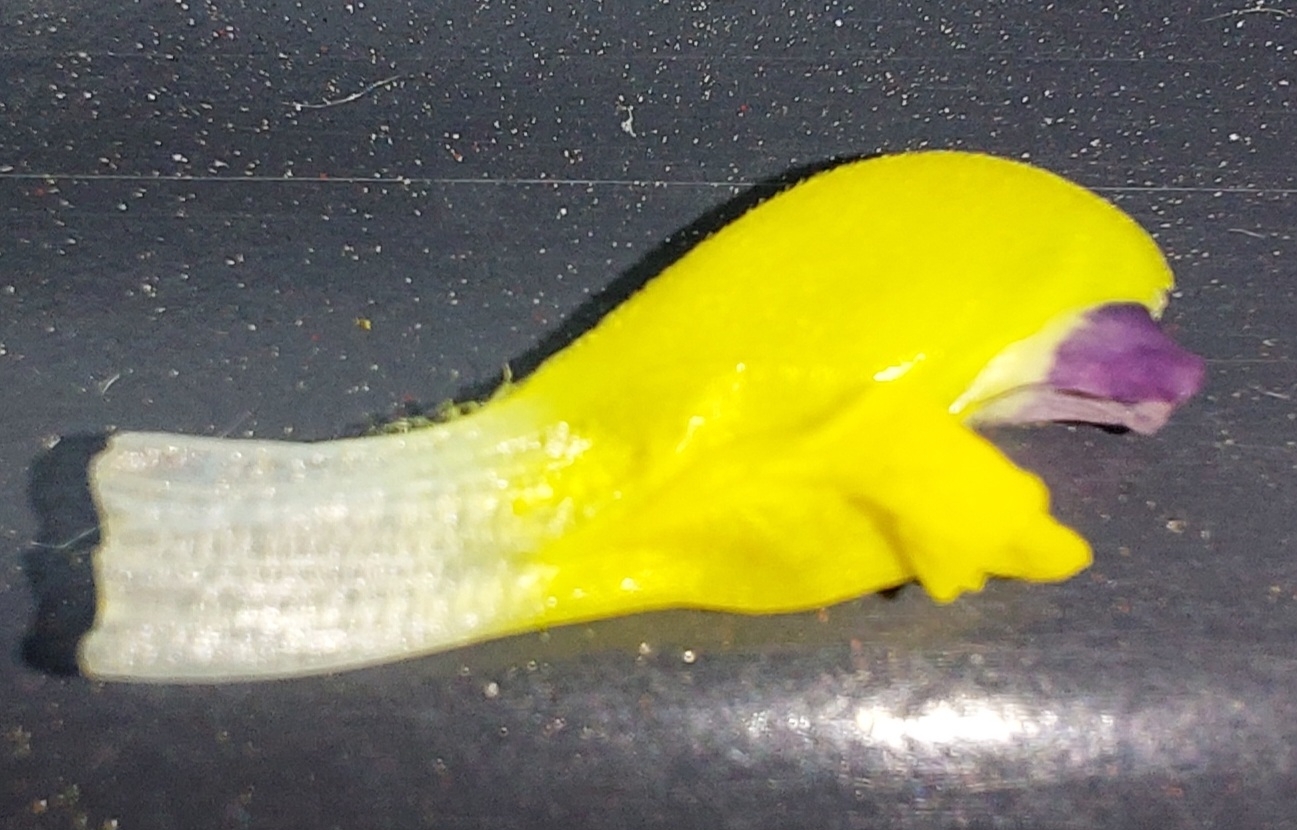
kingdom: Plantae
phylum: Tracheophyta
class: Magnoliopsida
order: Lamiales
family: Orobanchaceae
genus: Rhinanthus
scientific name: Rhinanthus serotinus
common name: Late-flowering yellow rattle
